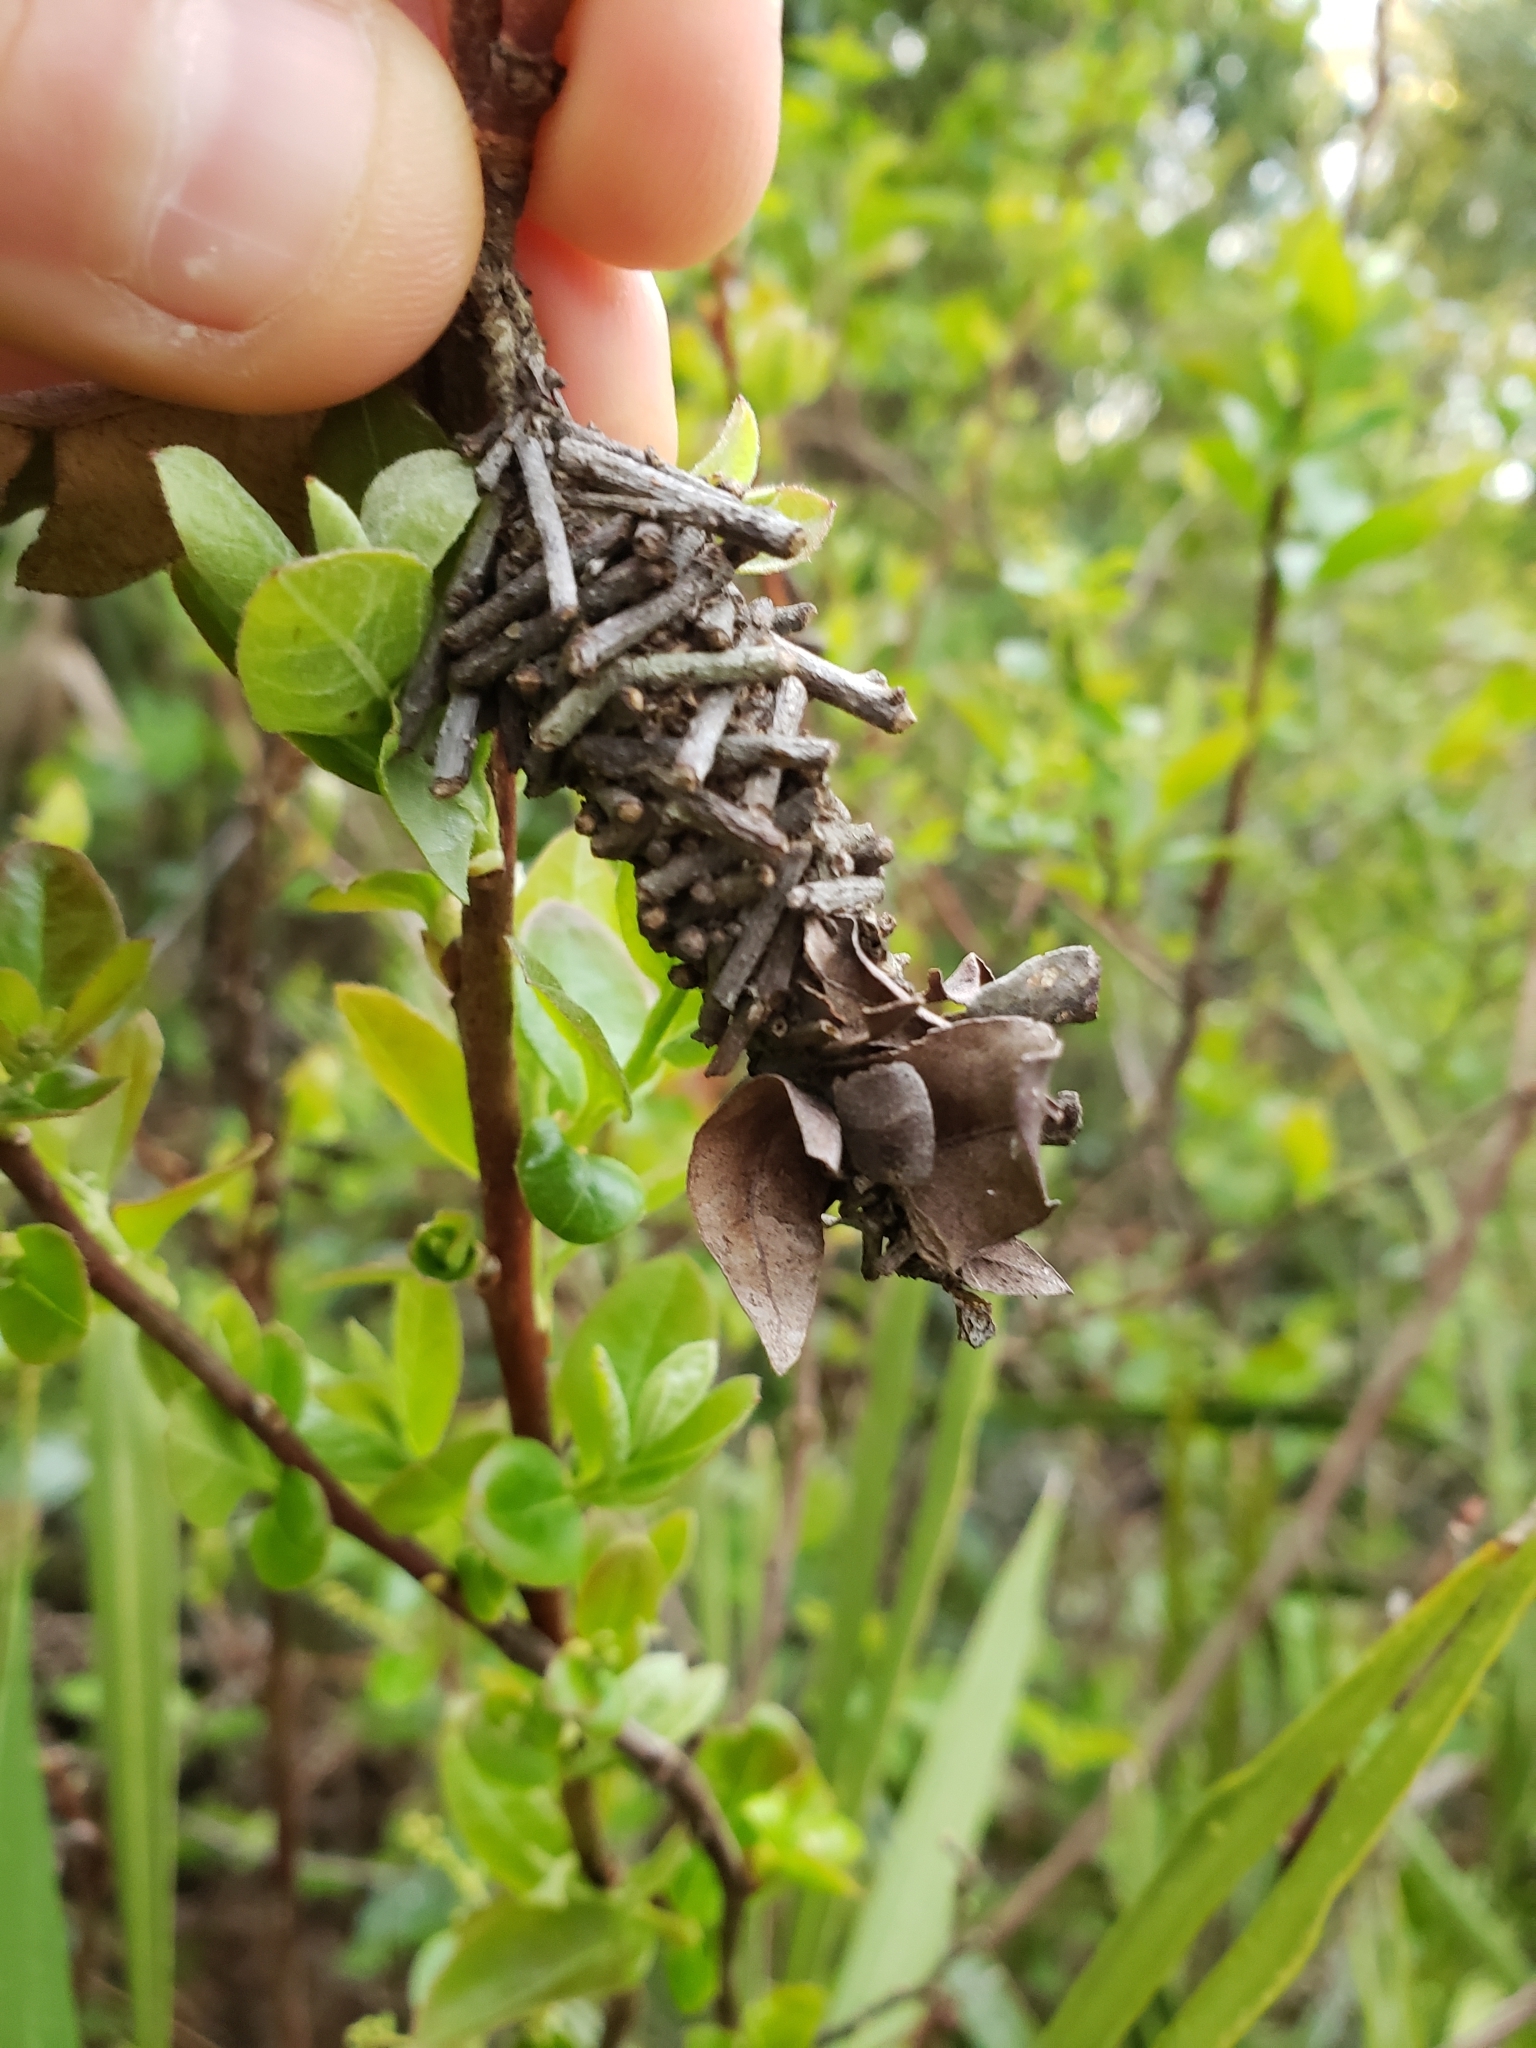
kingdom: Animalia
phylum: Arthropoda
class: Insecta
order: Lepidoptera
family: Psychidae
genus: Oiketicus
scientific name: Oiketicus
